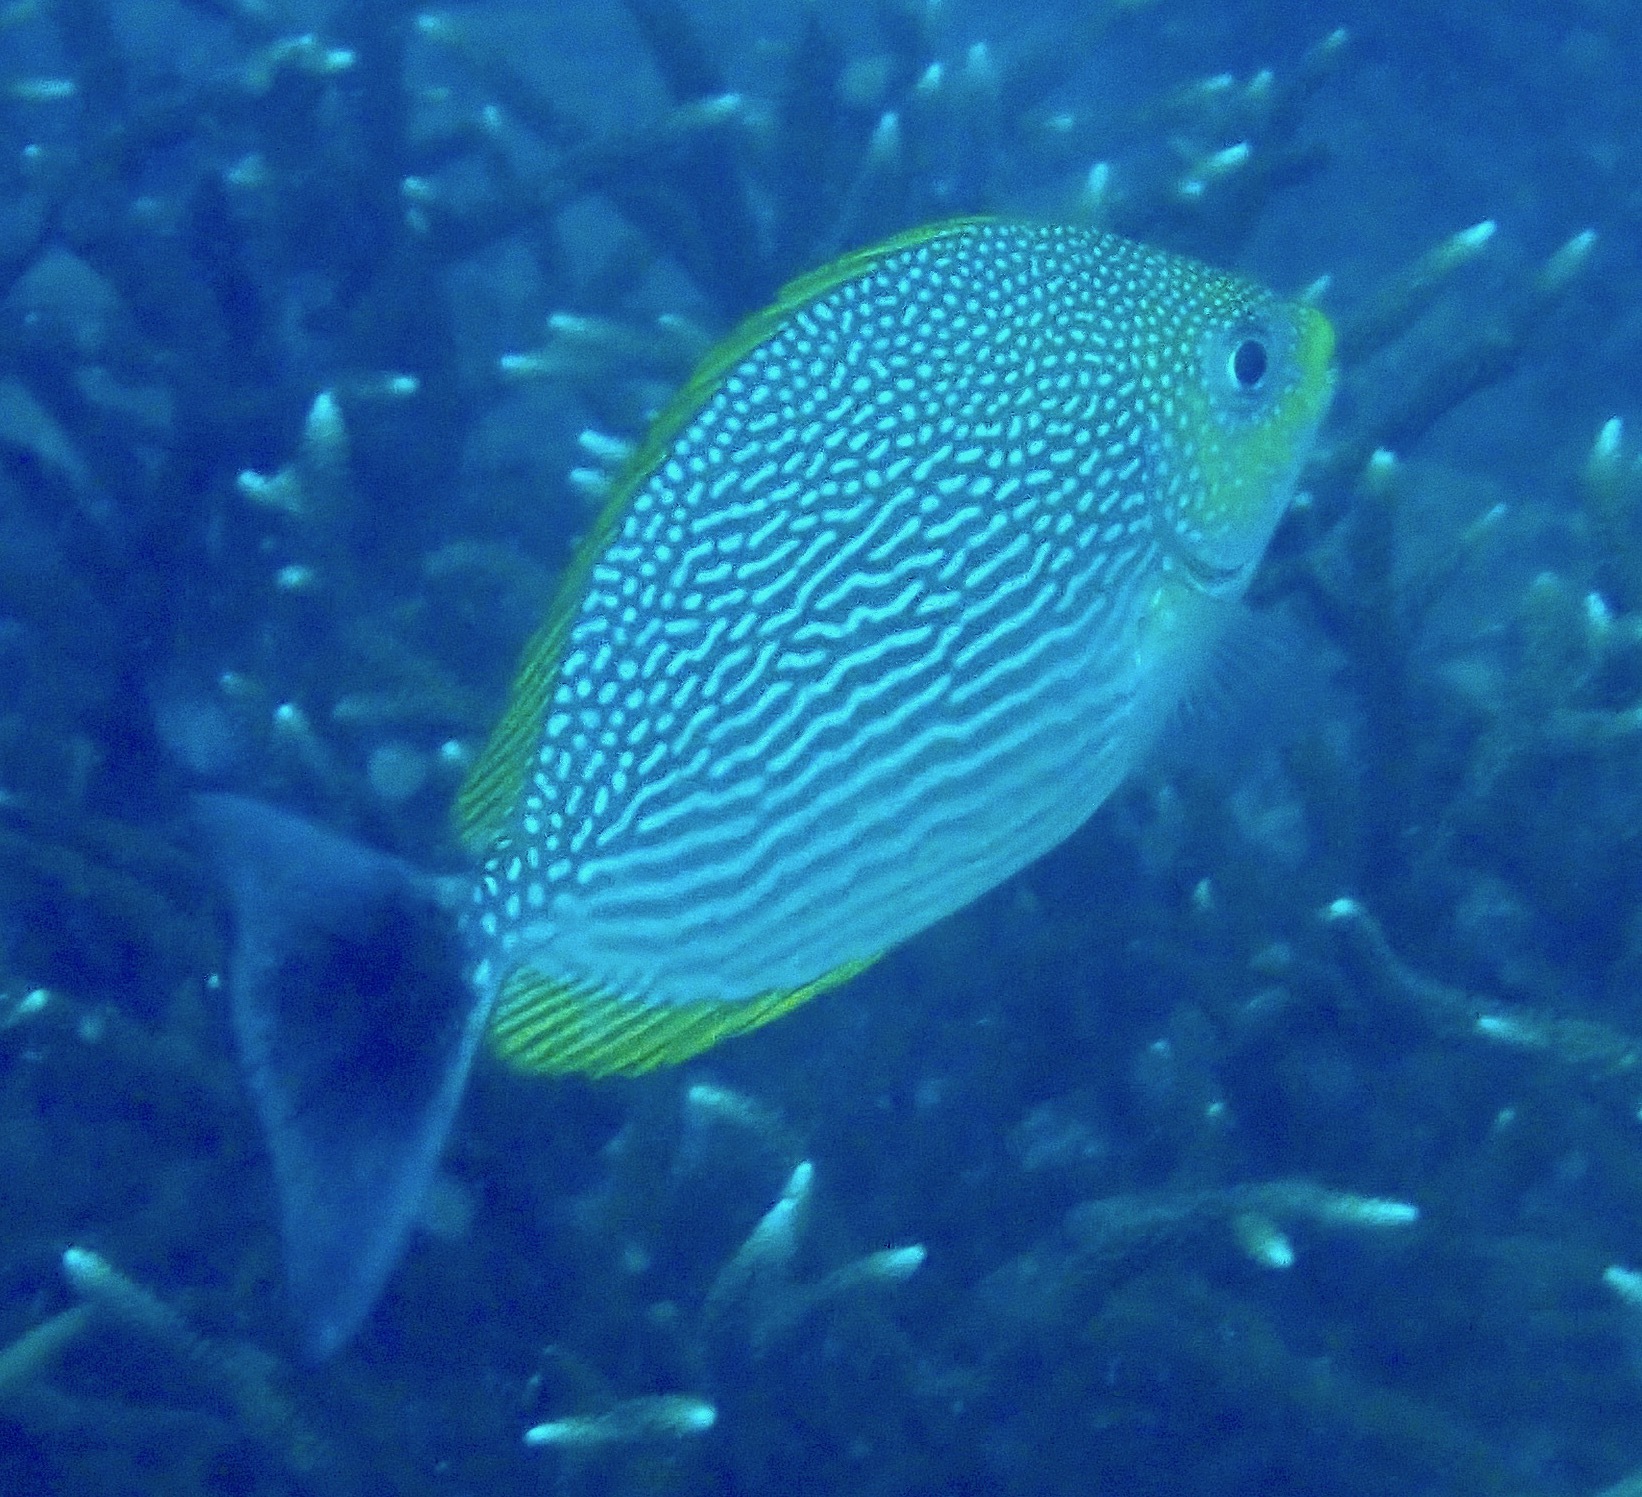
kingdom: Animalia
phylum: Chordata
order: Perciformes
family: Siganidae
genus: Siganus
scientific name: Siganus javus
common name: Java rabbitfish
